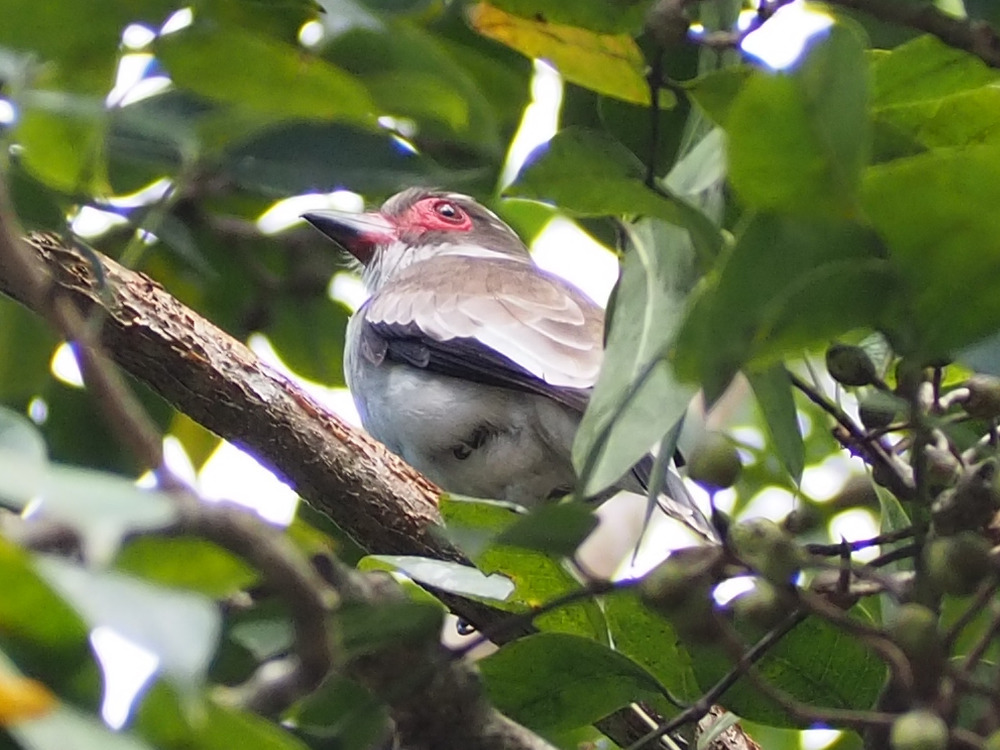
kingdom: Animalia
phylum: Chordata
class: Aves
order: Passeriformes
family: Cotingidae
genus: Tityra
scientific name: Tityra semifasciata
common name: Masked tityra
